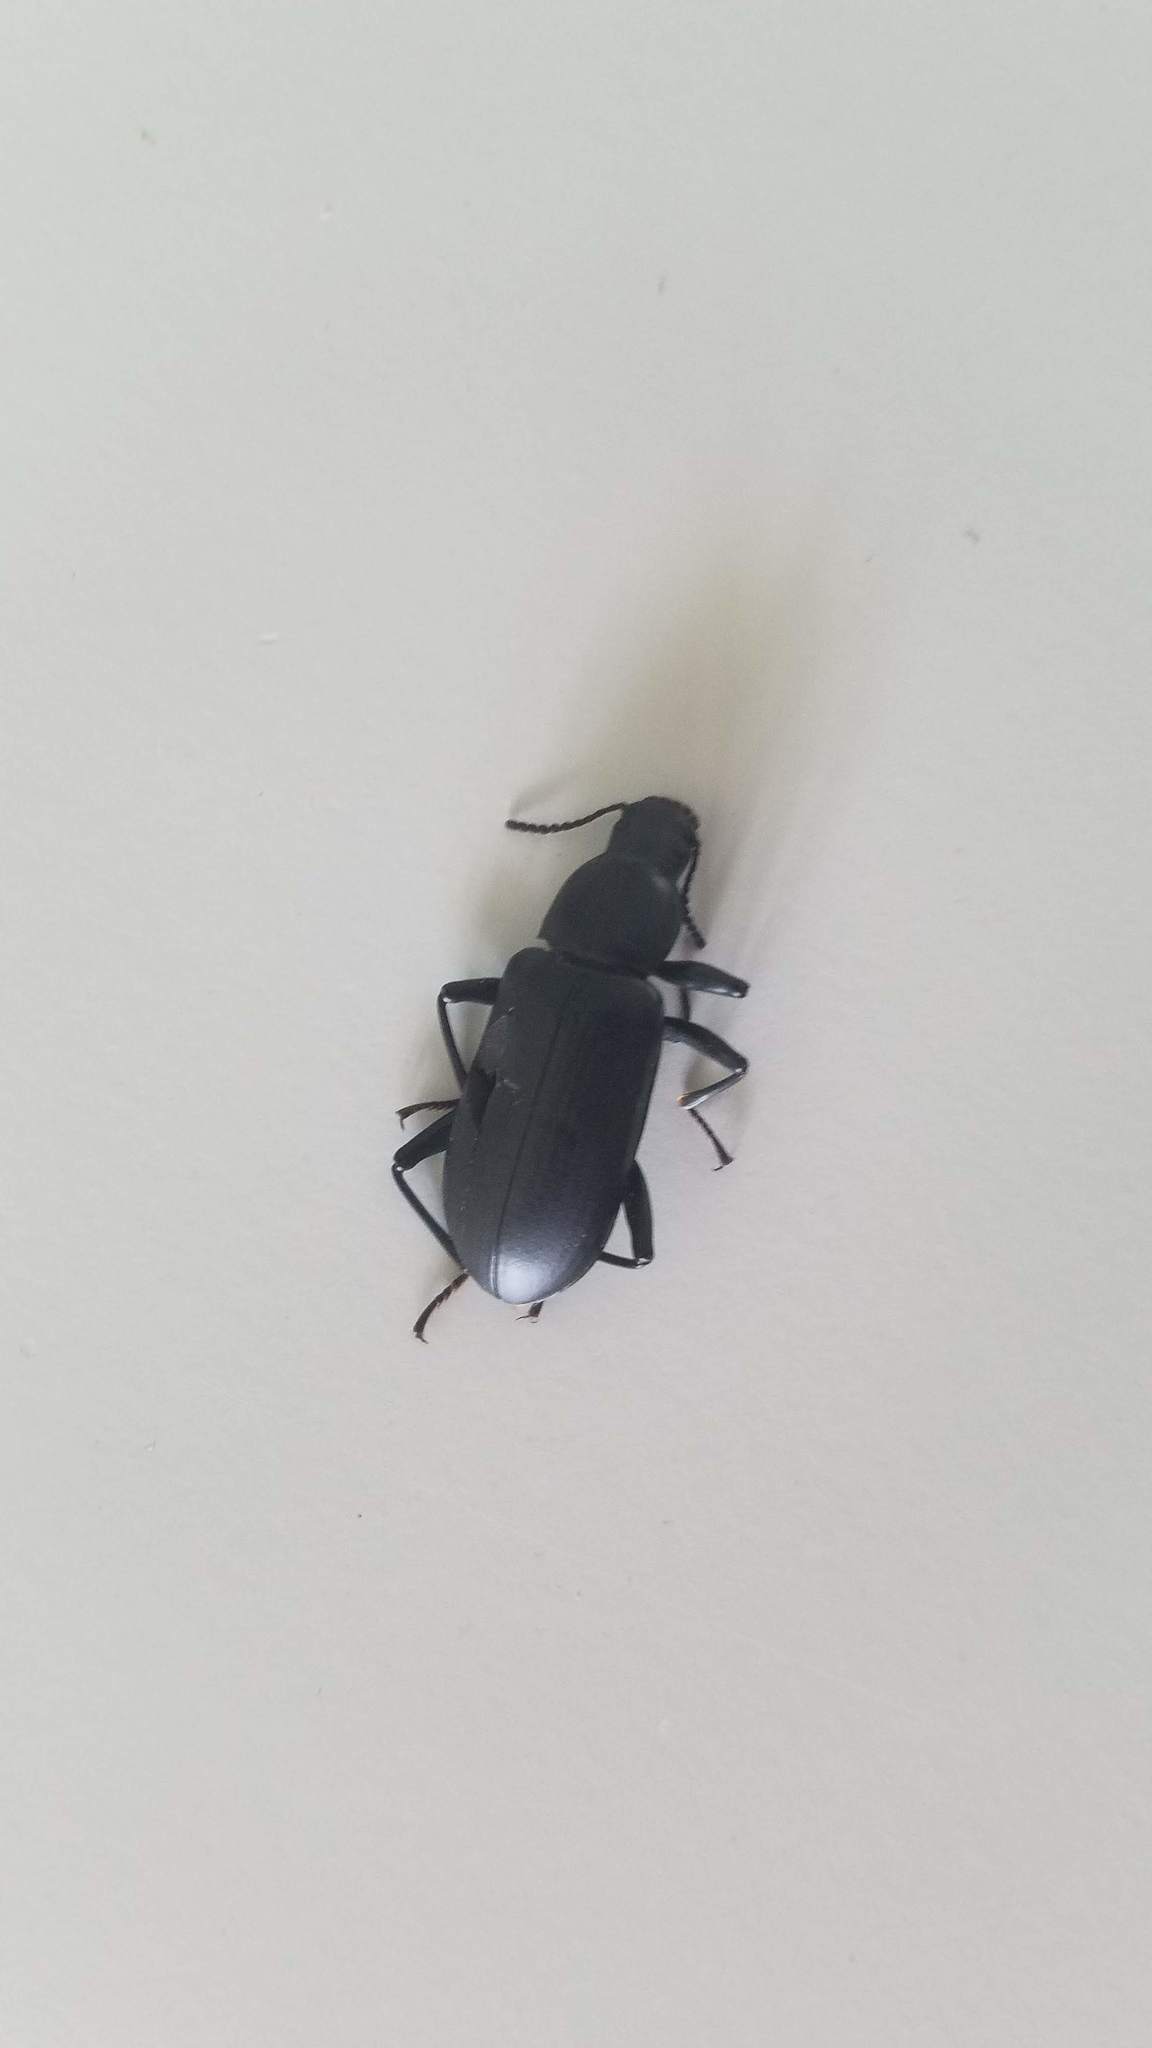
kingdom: Animalia
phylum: Arthropoda
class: Insecta
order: Coleoptera
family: Tenebrionidae
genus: Alobates
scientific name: Alobates pensylvanicus
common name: False mealworm beetle
